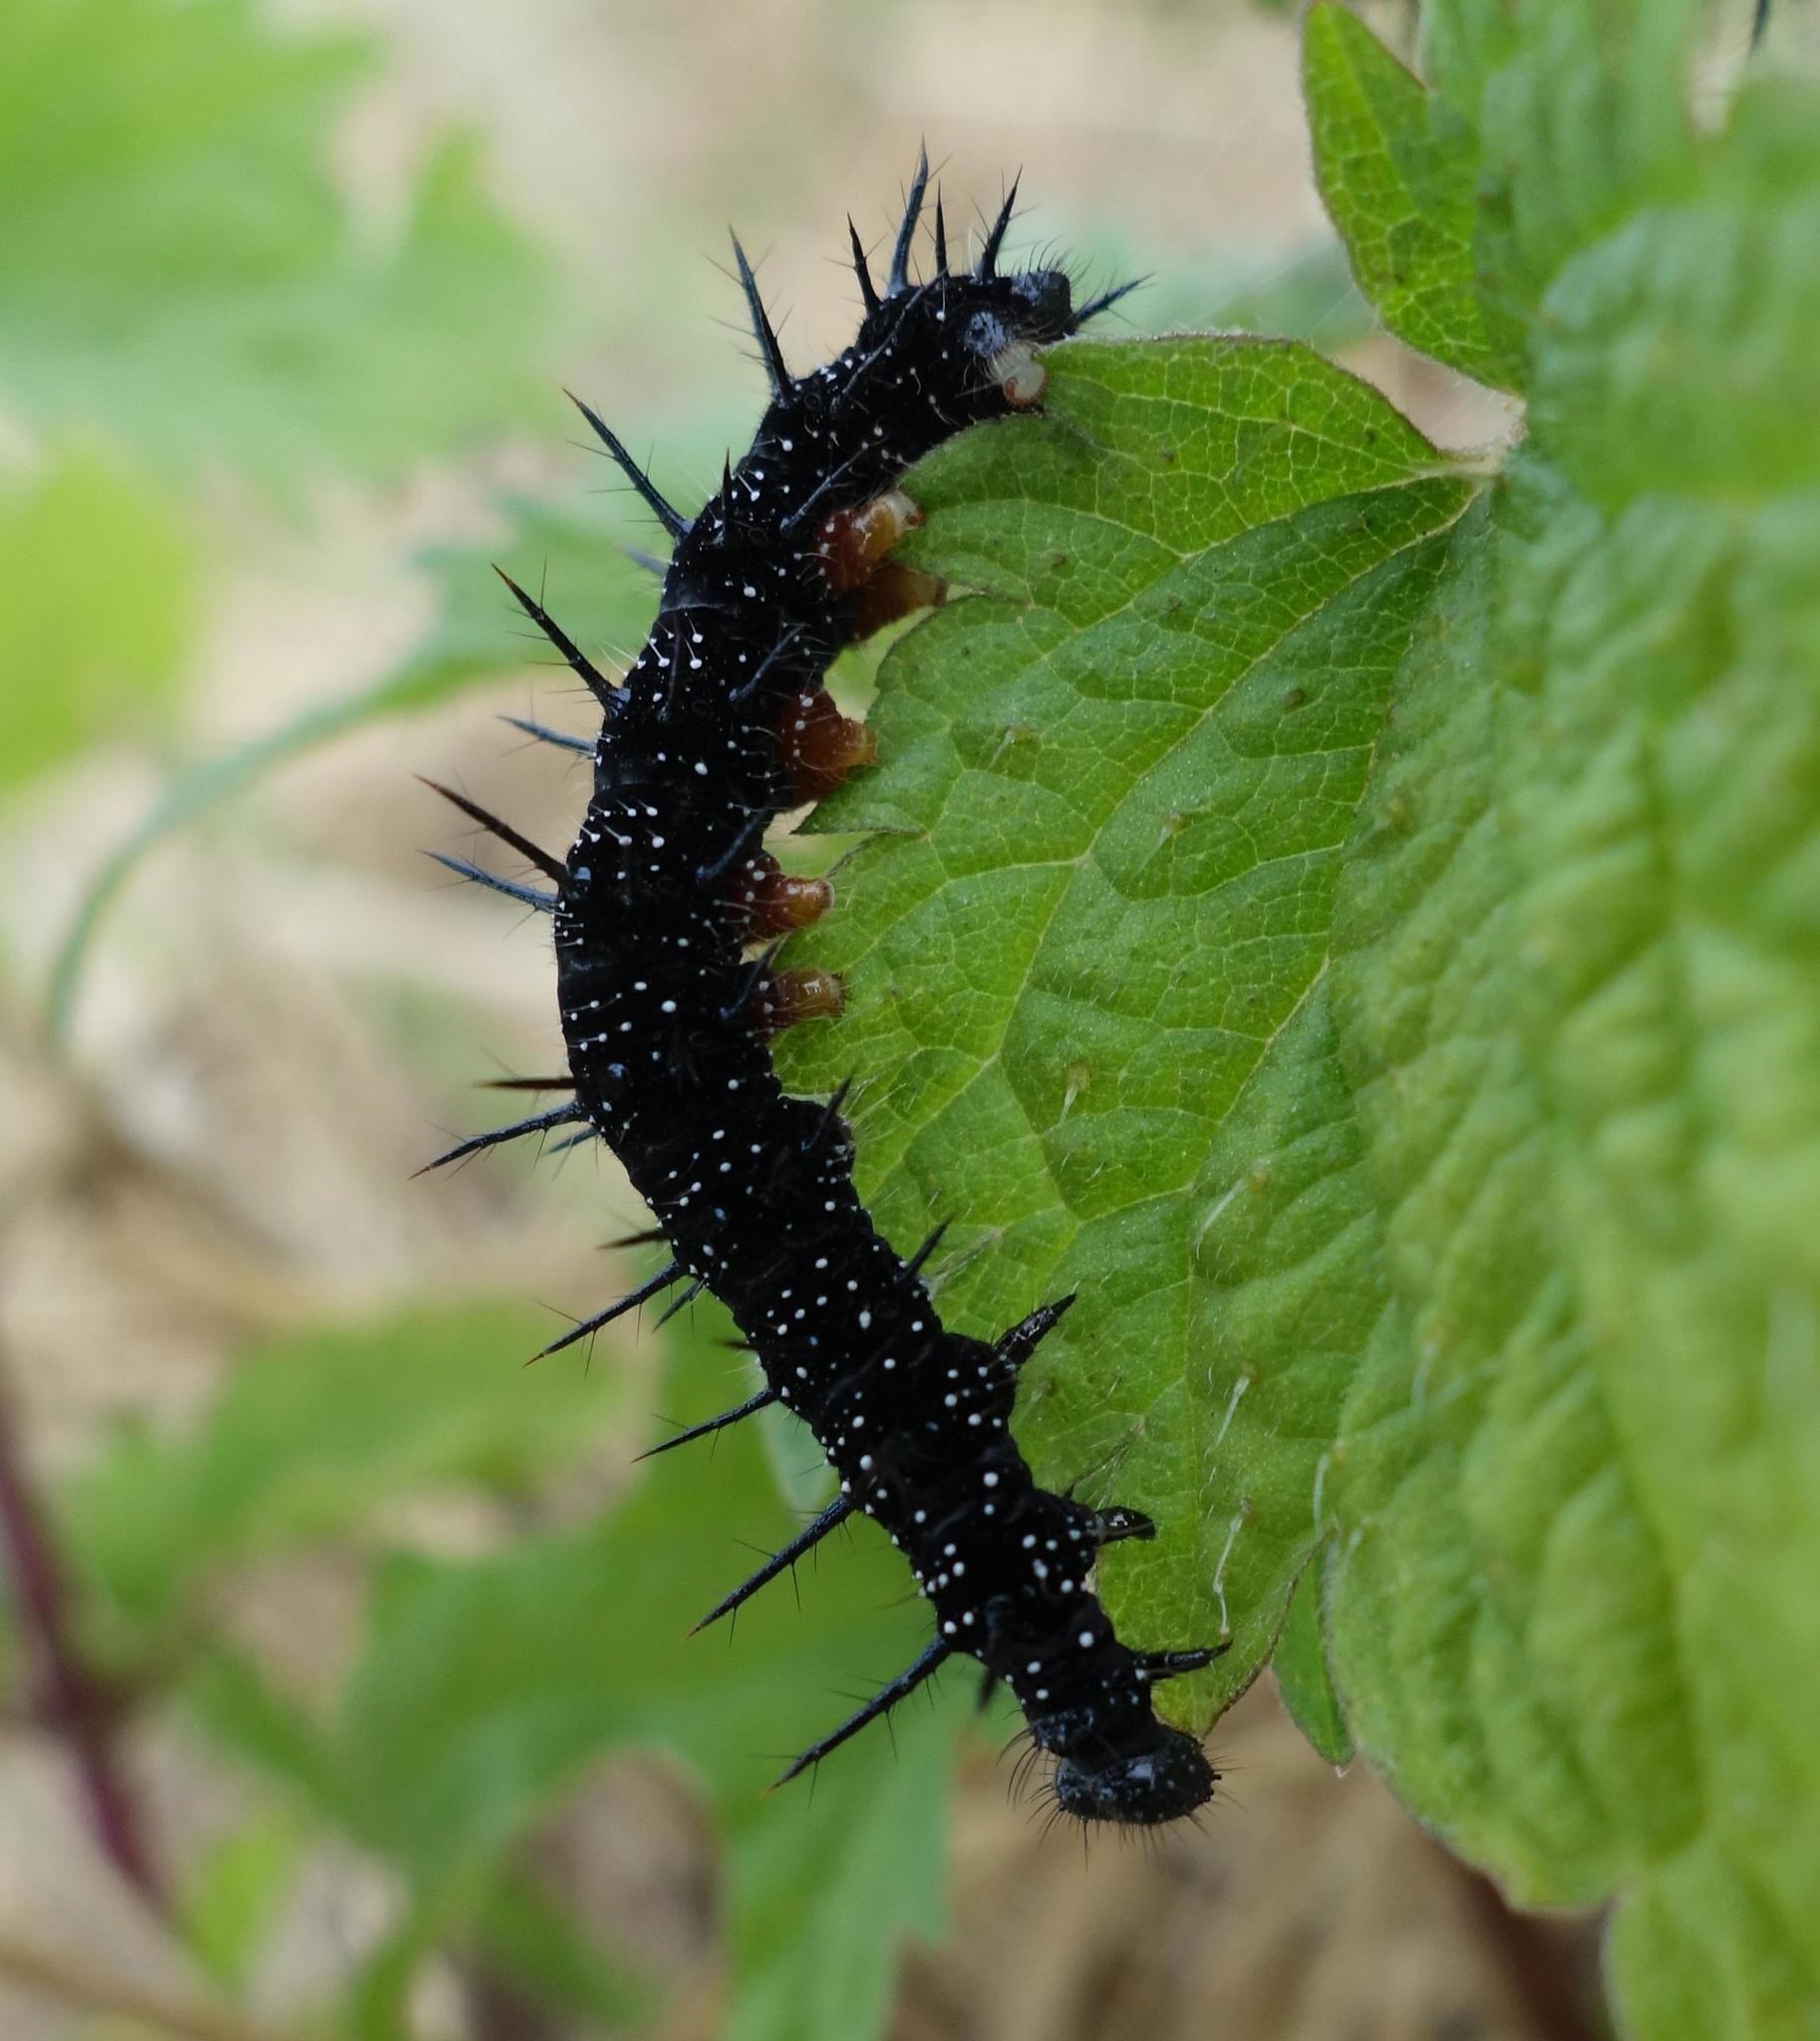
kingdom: Animalia
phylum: Arthropoda
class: Insecta
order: Lepidoptera
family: Nymphalidae
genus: Aglais
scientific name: Aglais io
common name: Peacock
